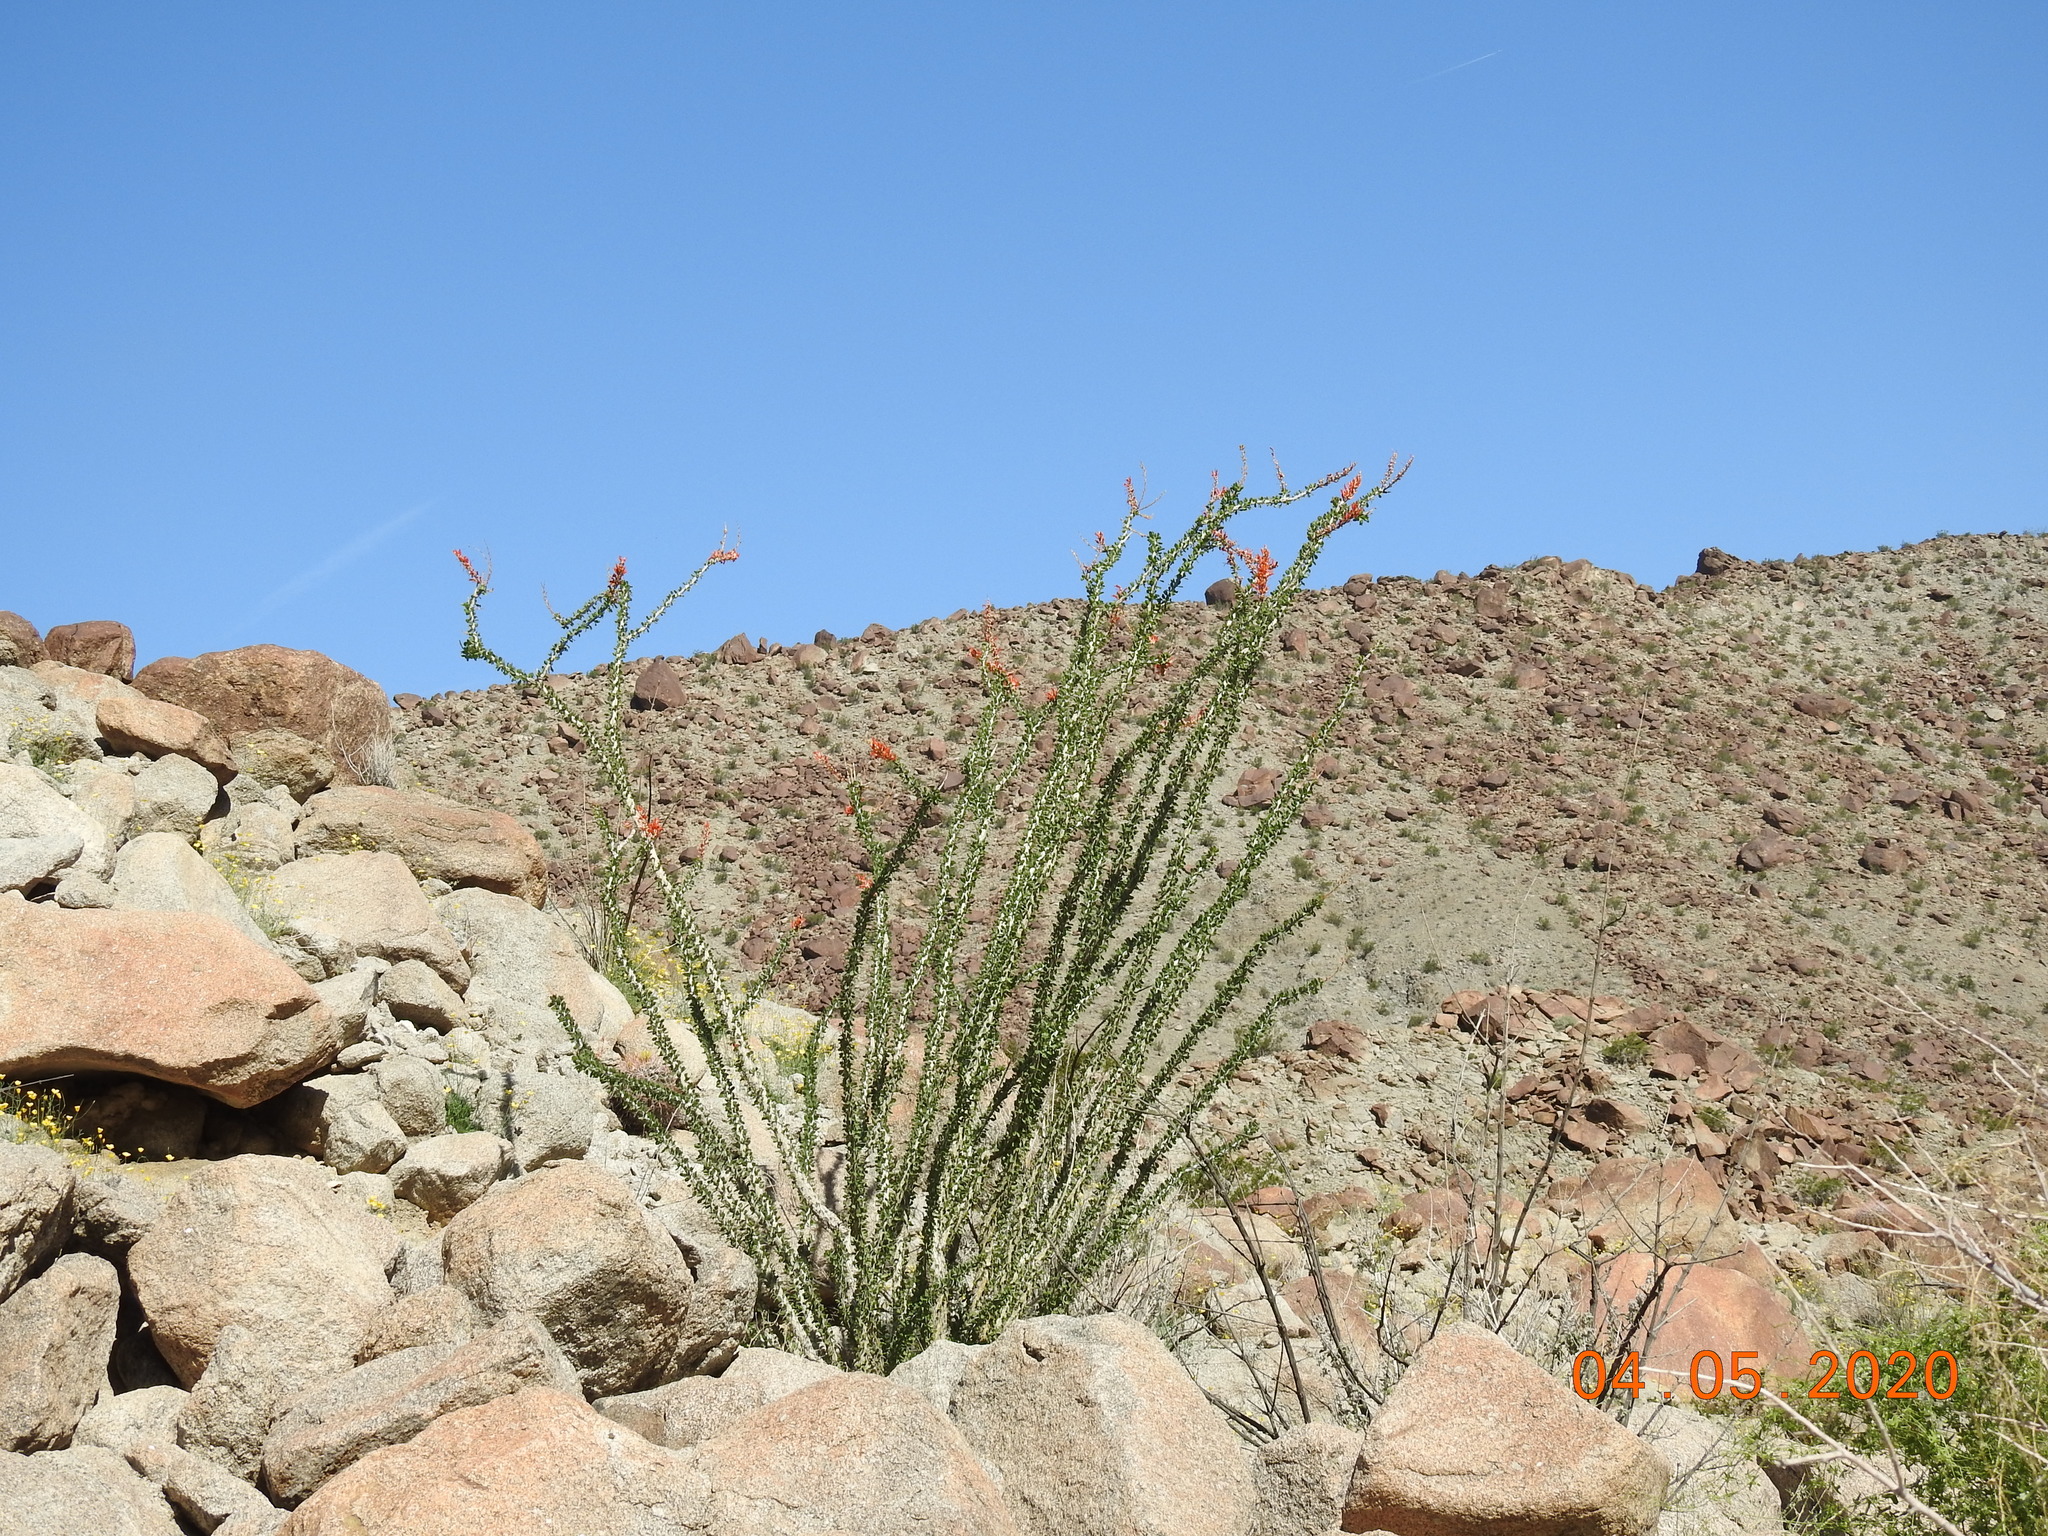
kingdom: Plantae
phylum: Tracheophyta
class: Magnoliopsida
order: Ericales
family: Fouquieriaceae
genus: Fouquieria
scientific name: Fouquieria splendens
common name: Vine-cactus
